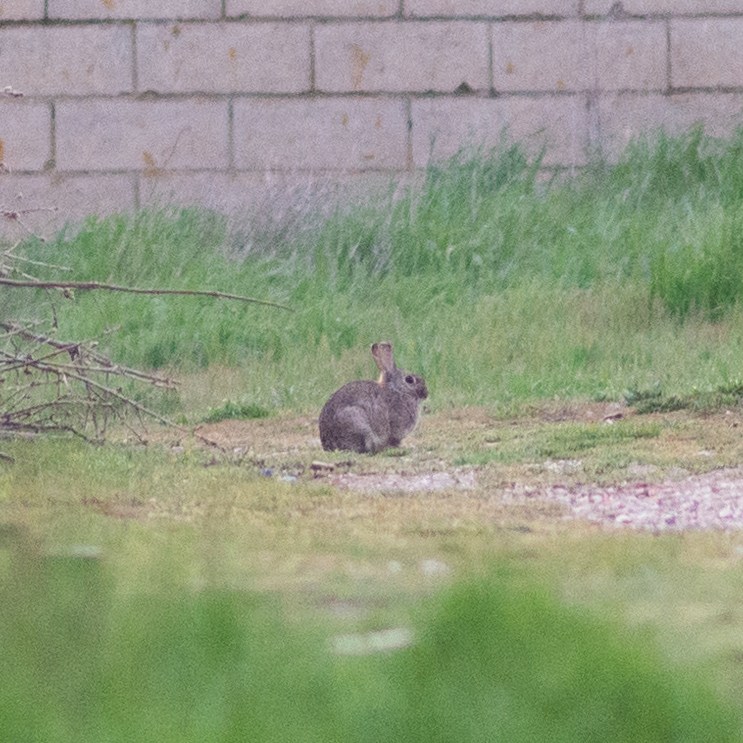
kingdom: Animalia
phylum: Chordata
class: Mammalia
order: Lagomorpha
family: Leporidae
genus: Oryctolagus
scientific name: Oryctolagus cuniculus
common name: European rabbit
